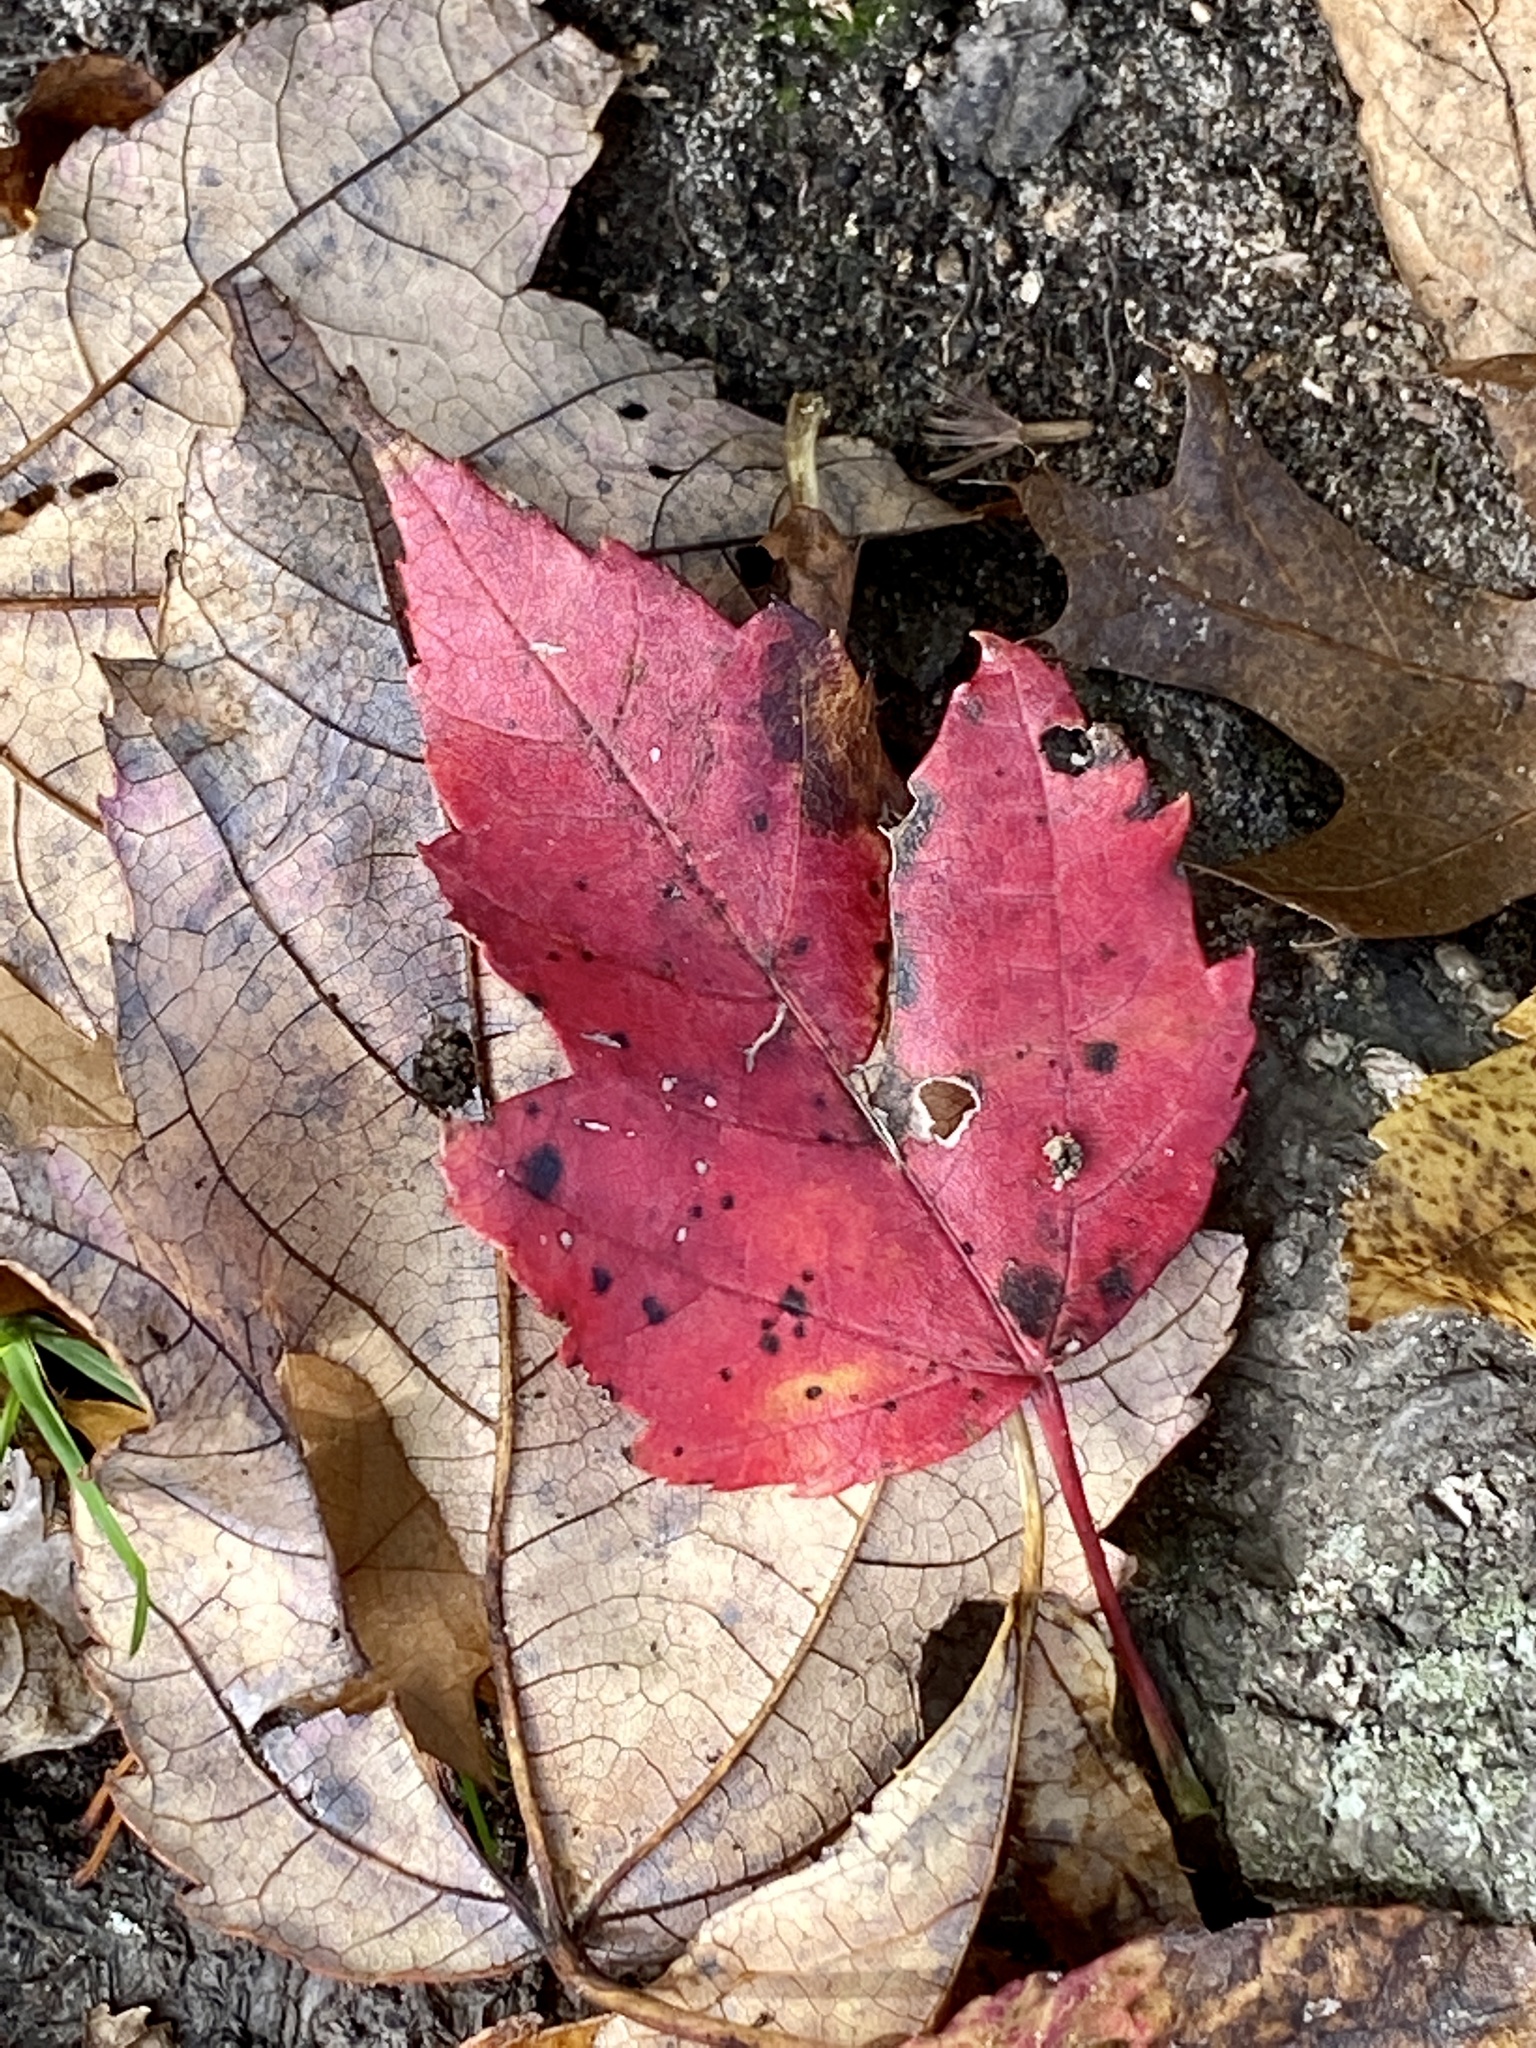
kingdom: Plantae
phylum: Tracheophyta
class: Magnoliopsida
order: Sapindales
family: Sapindaceae
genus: Acer
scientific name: Acer rubrum
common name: Red maple
